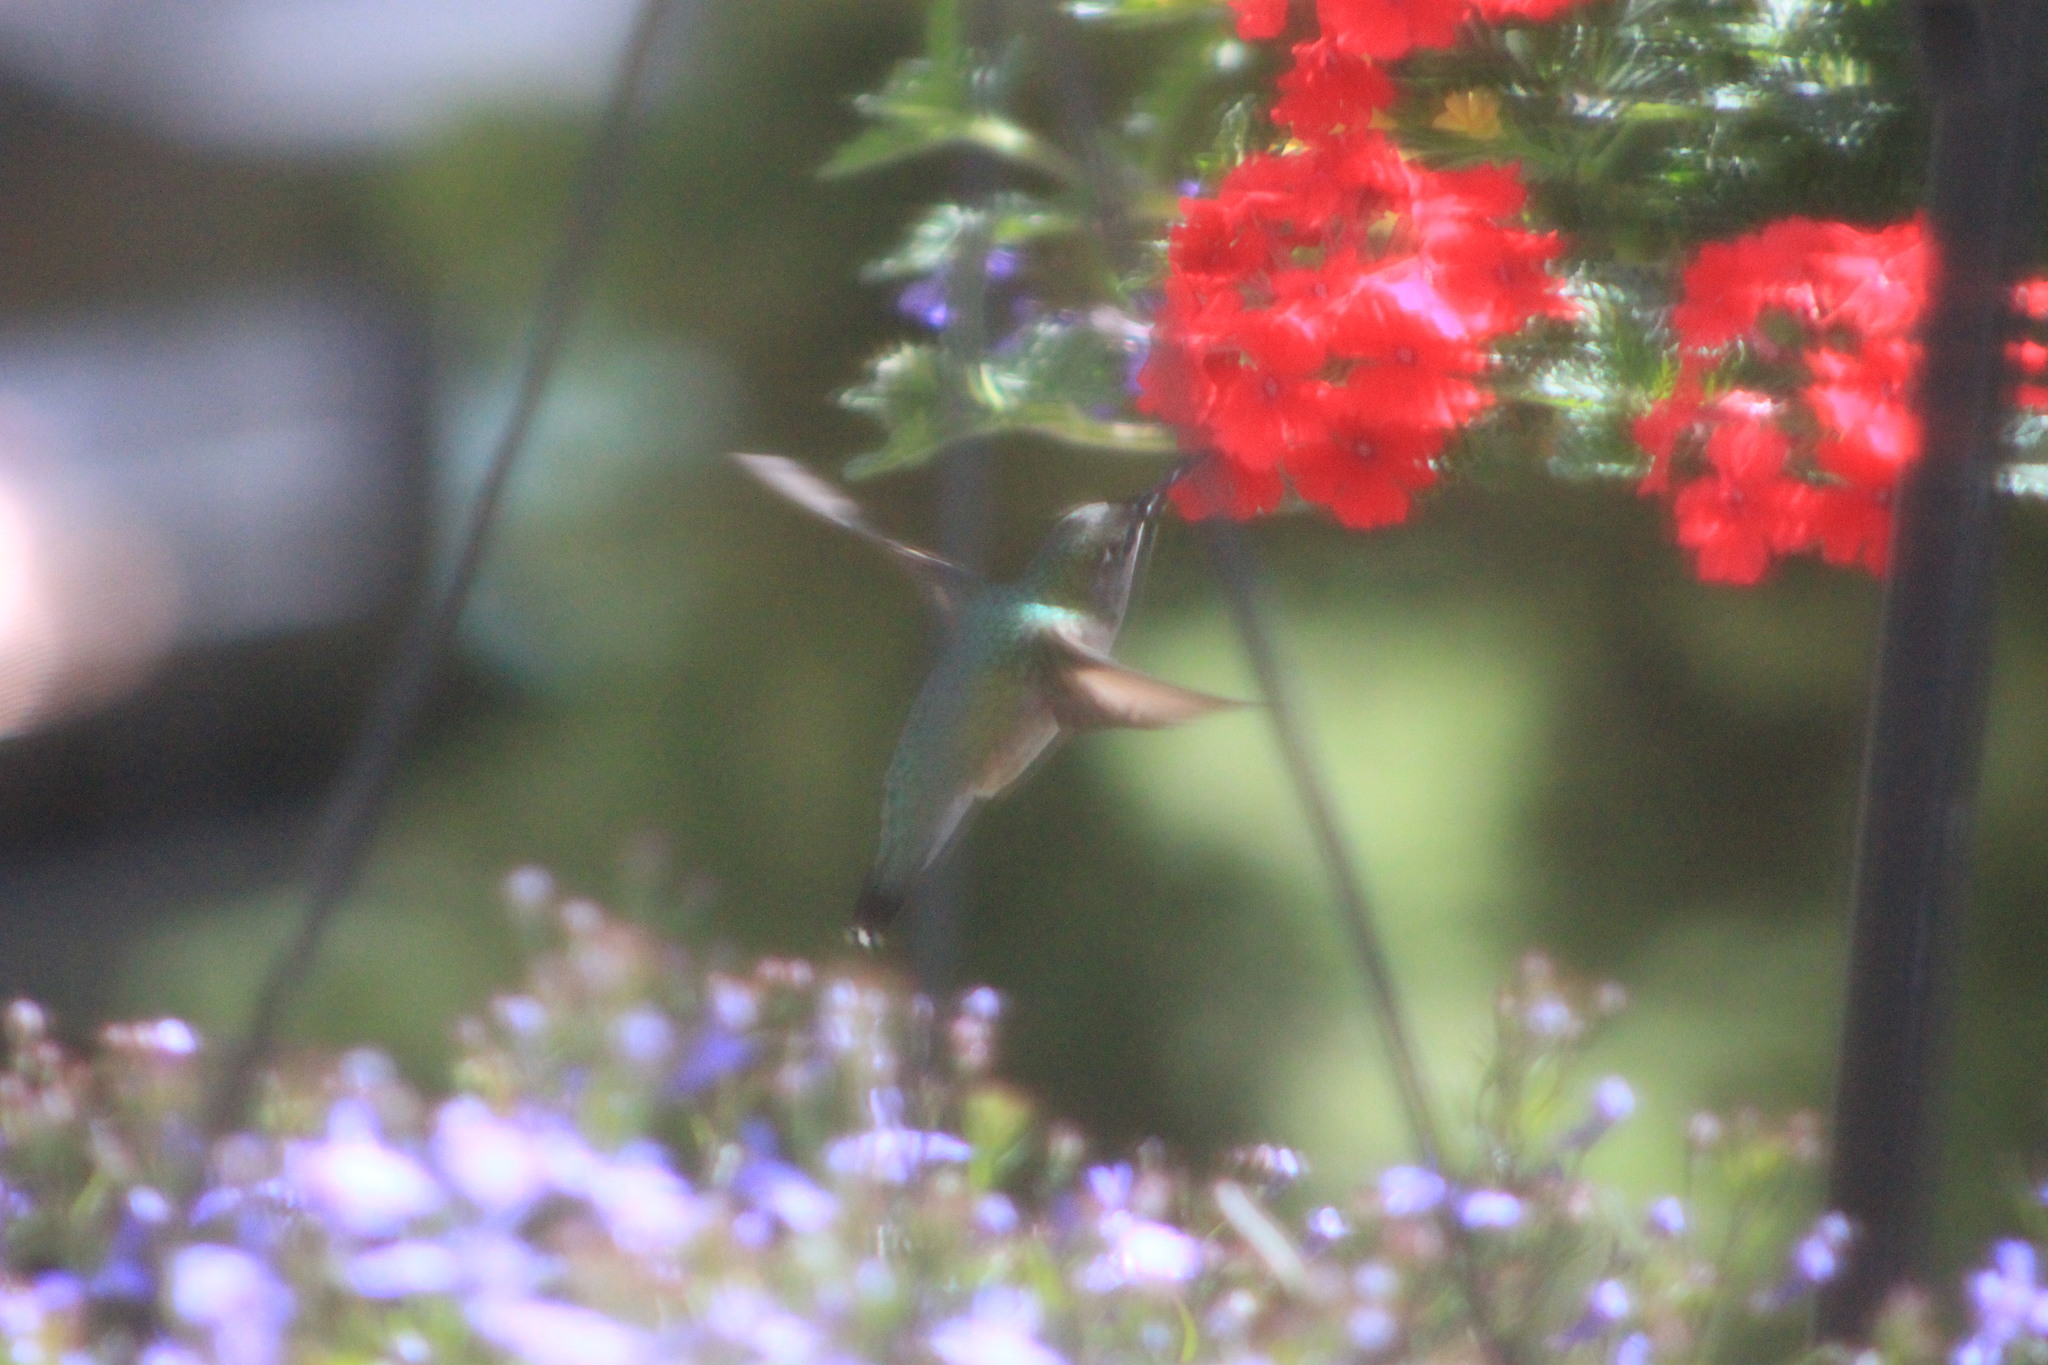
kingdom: Animalia
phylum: Chordata
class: Aves
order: Apodiformes
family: Trochilidae
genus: Archilochus
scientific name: Archilochus colubris
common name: Ruby-throated hummingbird
